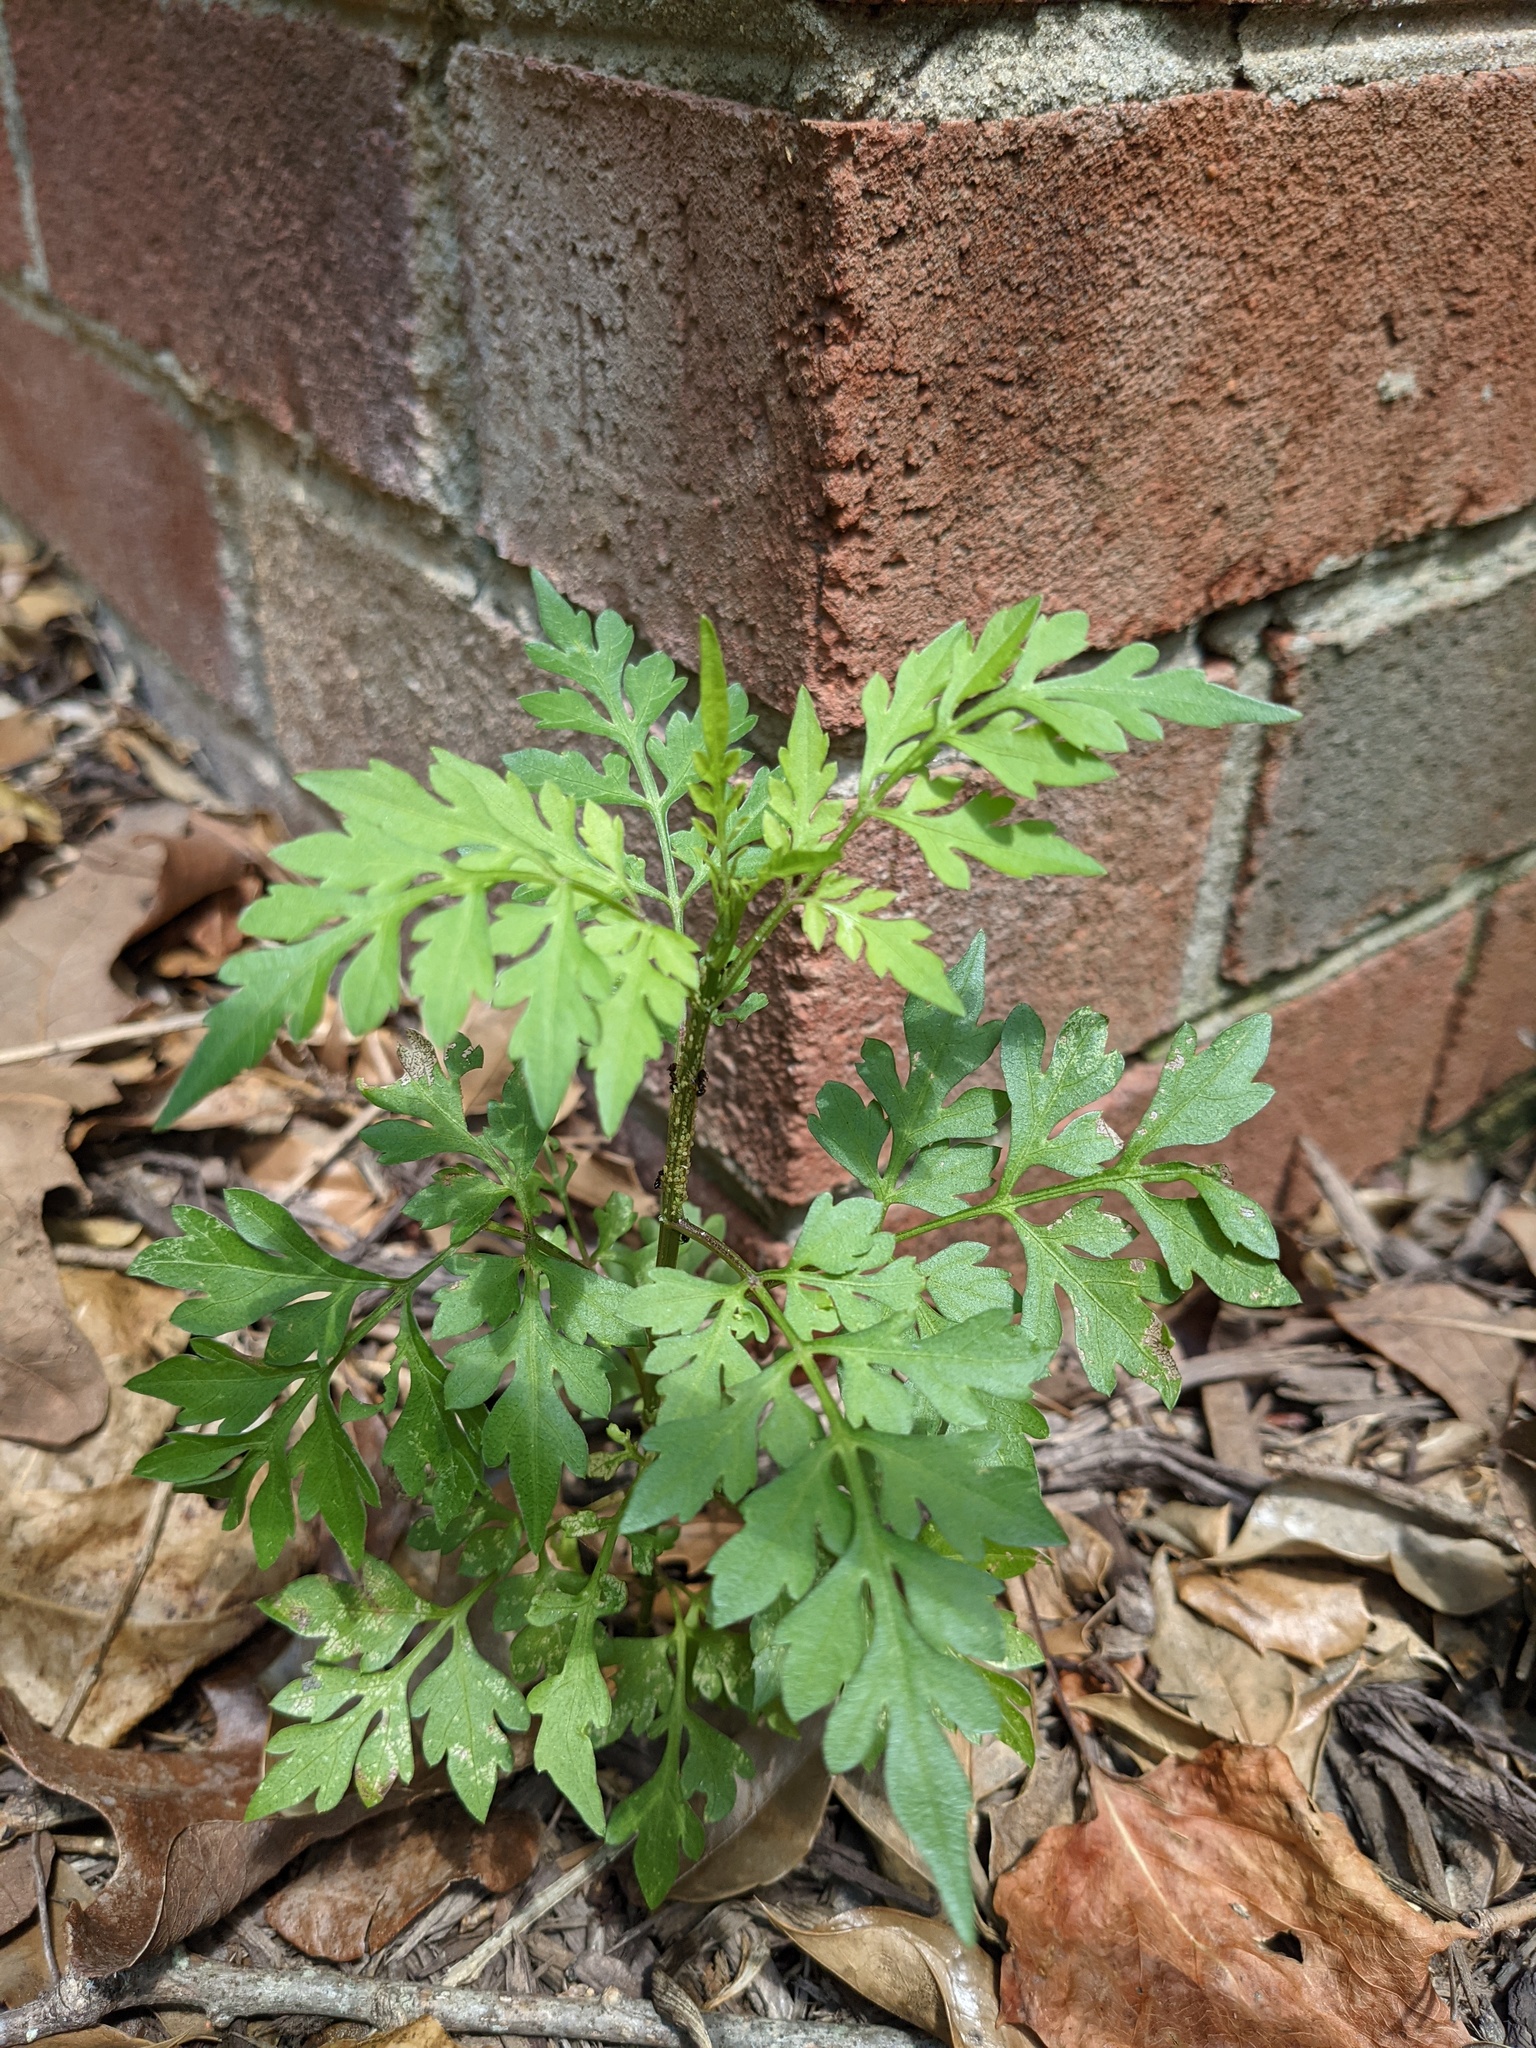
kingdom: Plantae
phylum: Tracheophyta
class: Magnoliopsida
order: Asterales
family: Asteraceae
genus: Bidens
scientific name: Bidens bipinnata
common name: Spanish-needles
